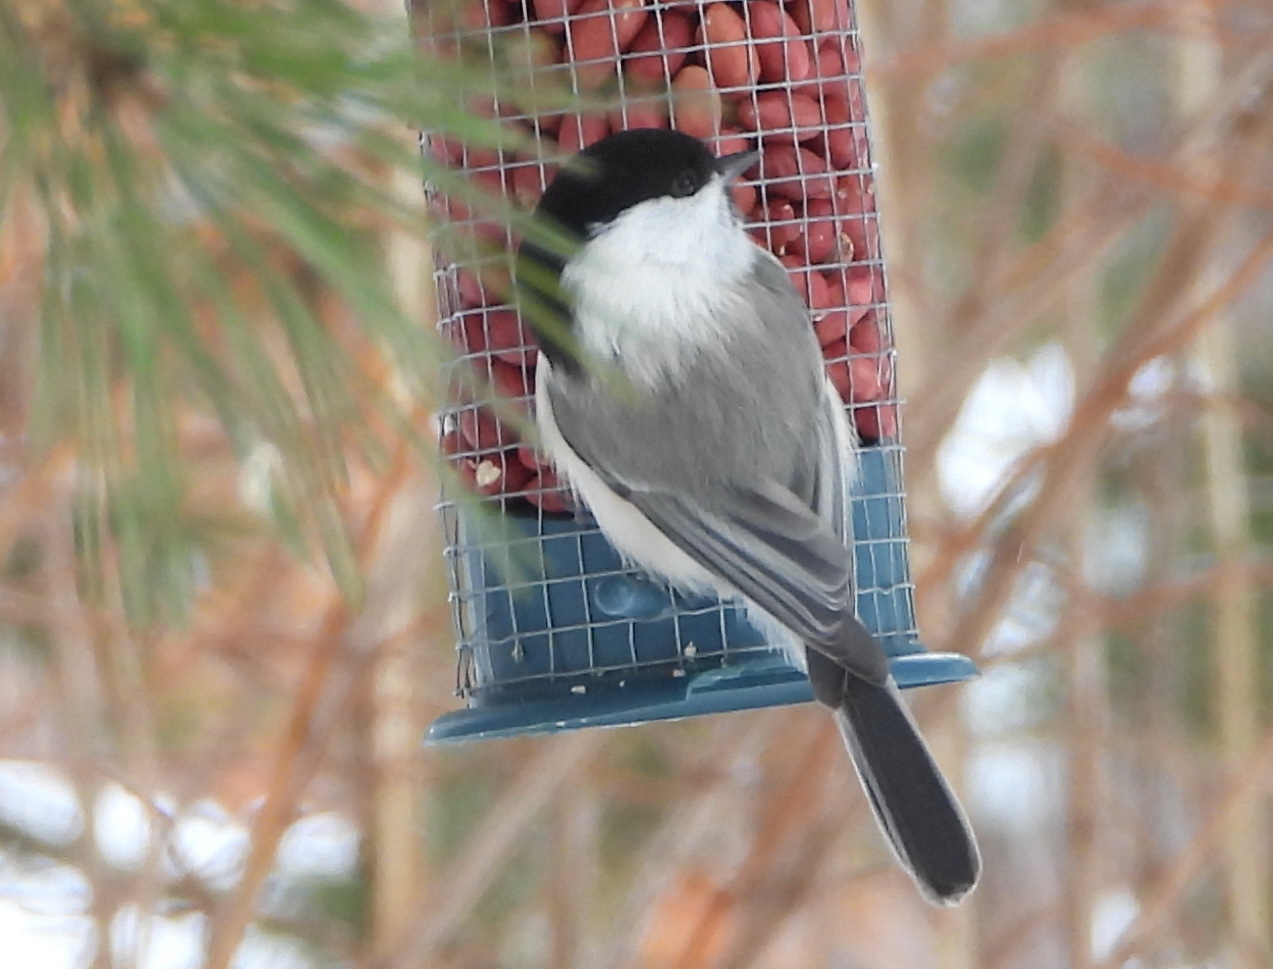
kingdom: Animalia
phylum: Chordata
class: Aves
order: Passeriformes
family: Paridae
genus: Poecile
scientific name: Poecile montanus
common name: Willow tit
